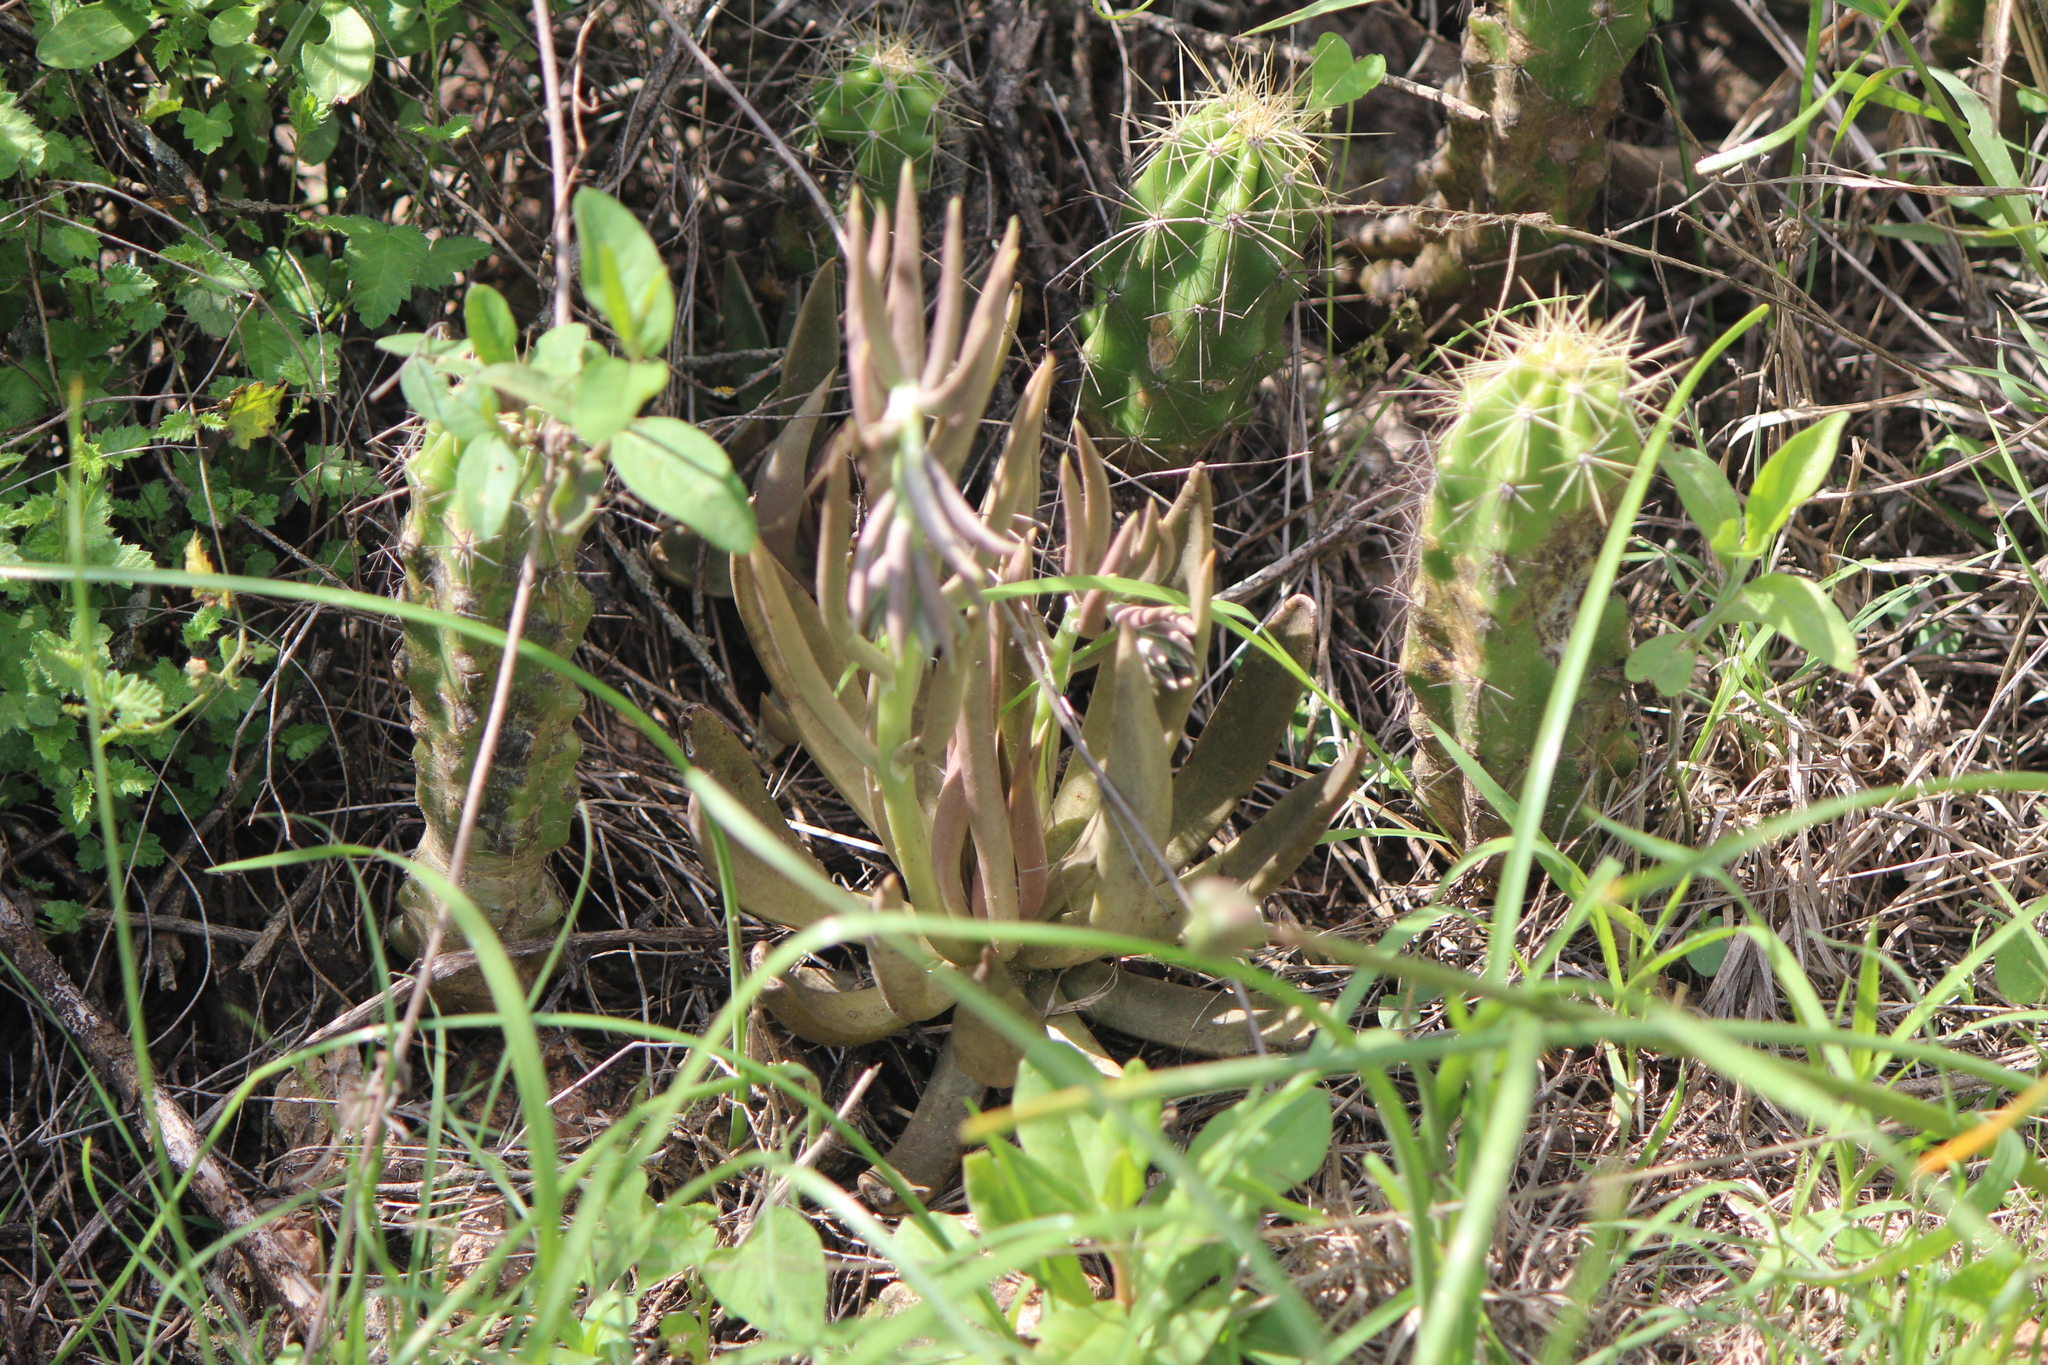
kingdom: Plantae
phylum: Tracheophyta
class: Magnoliopsida
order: Saxifragales
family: Crassulaceae
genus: Echeveria
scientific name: Echeveria bifida
